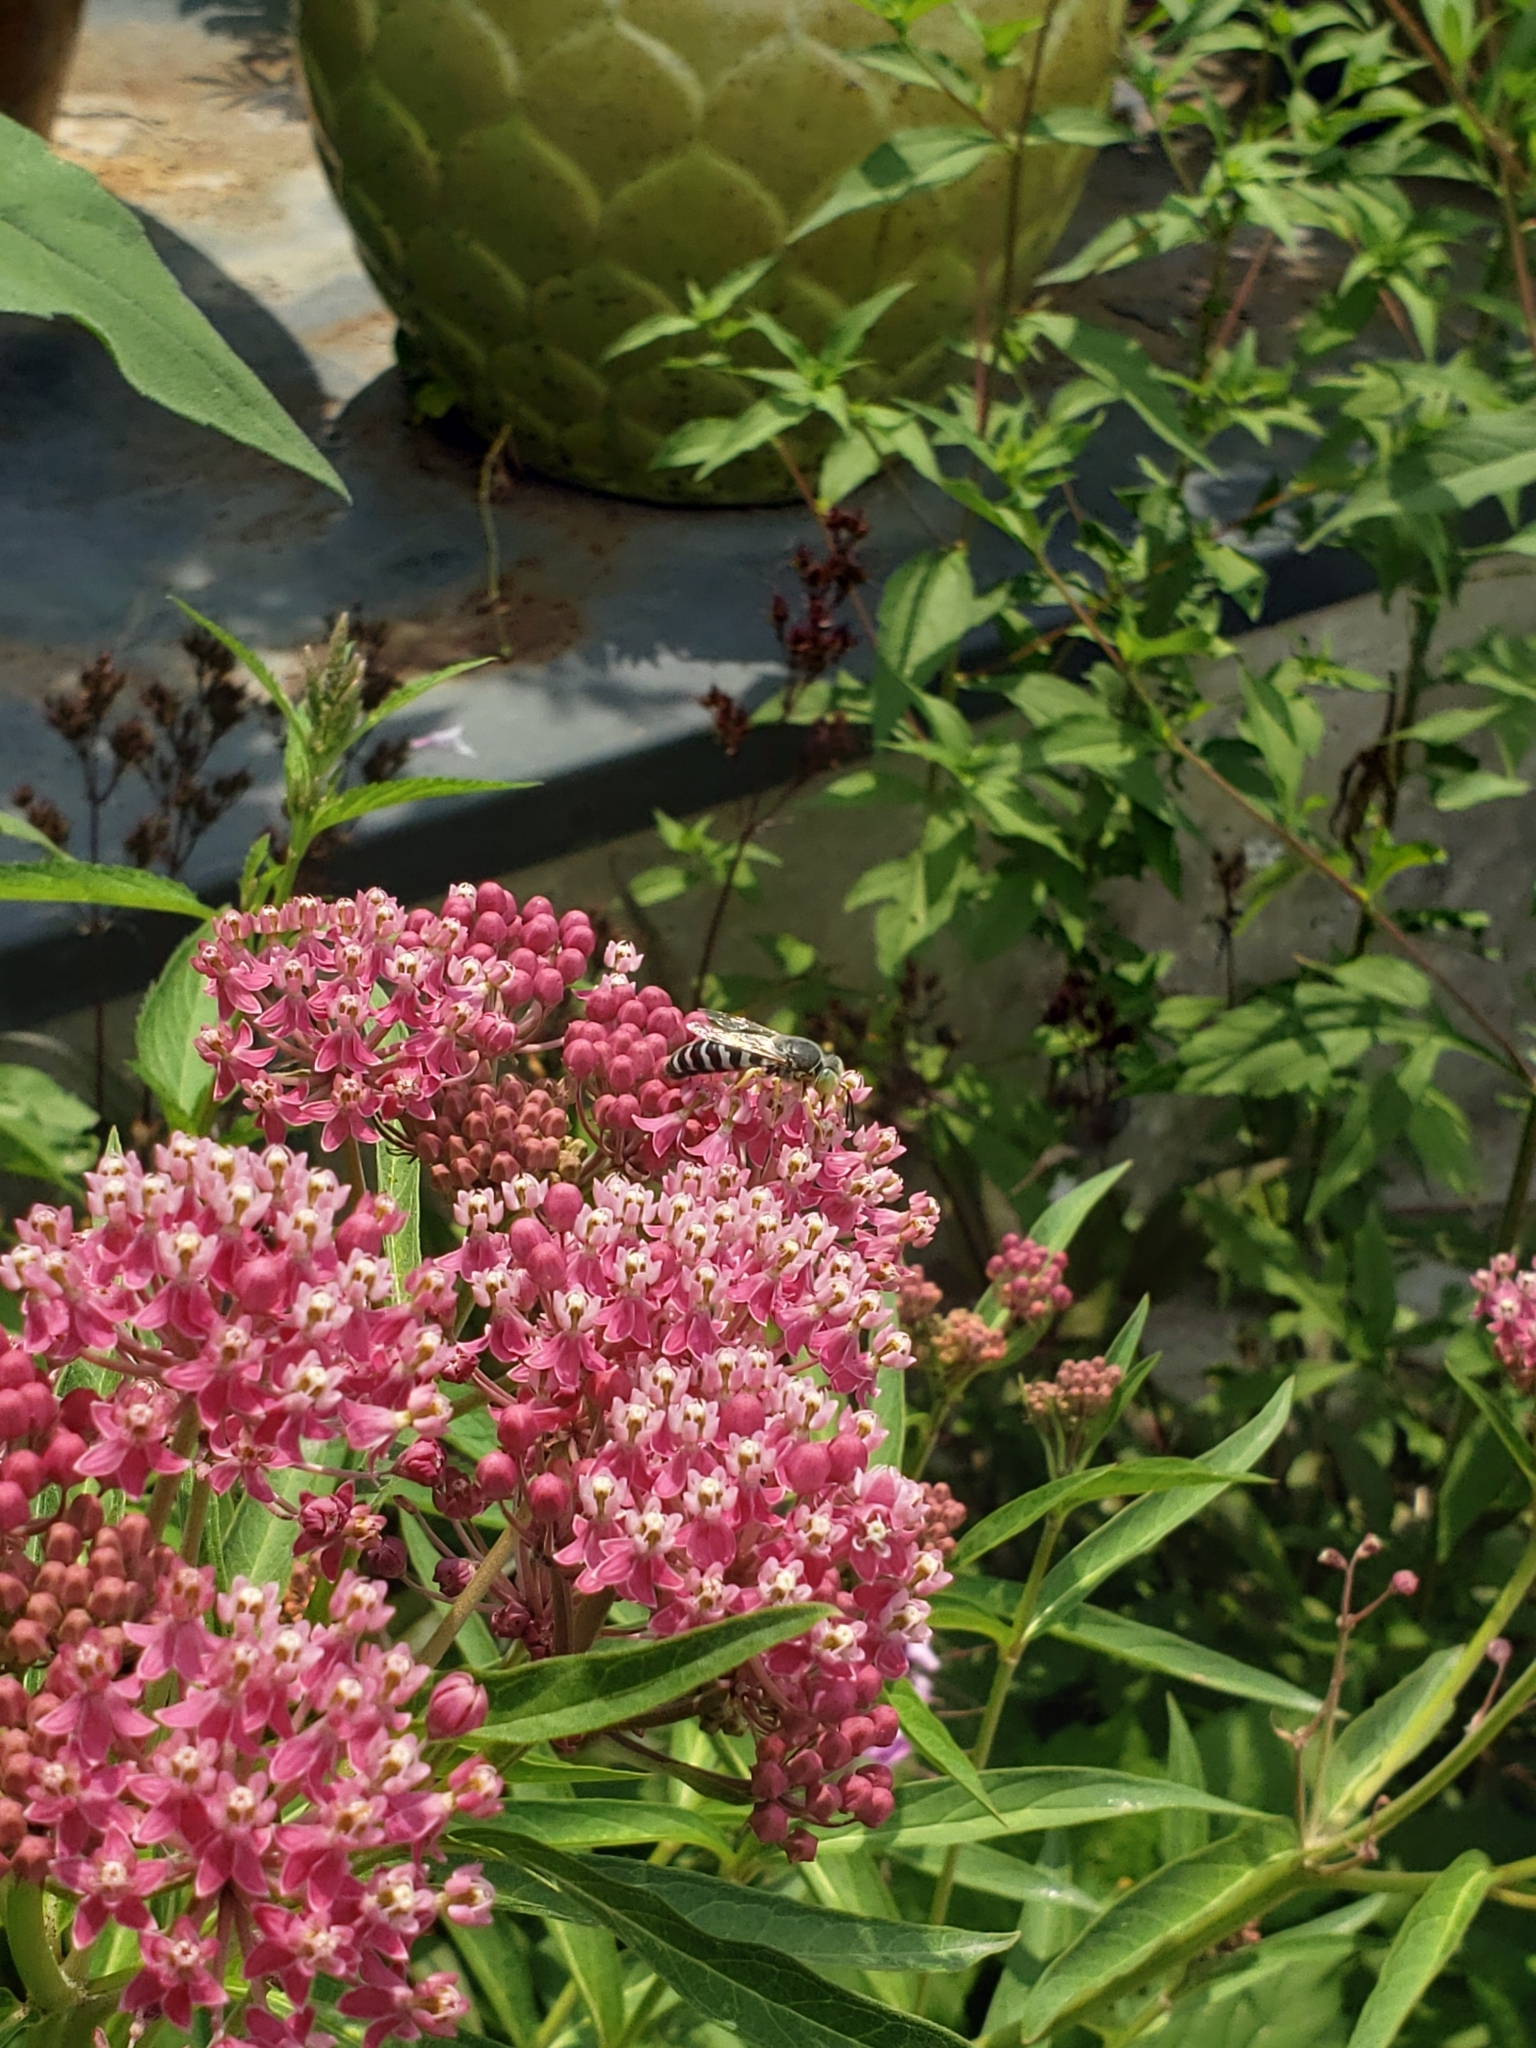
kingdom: Plantae
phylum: Tracheophyta
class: Magnoliopsida
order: Gentianales
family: Apocynaceae
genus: Asclepias
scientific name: Asclepias incarnata
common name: Swamp milkweed
